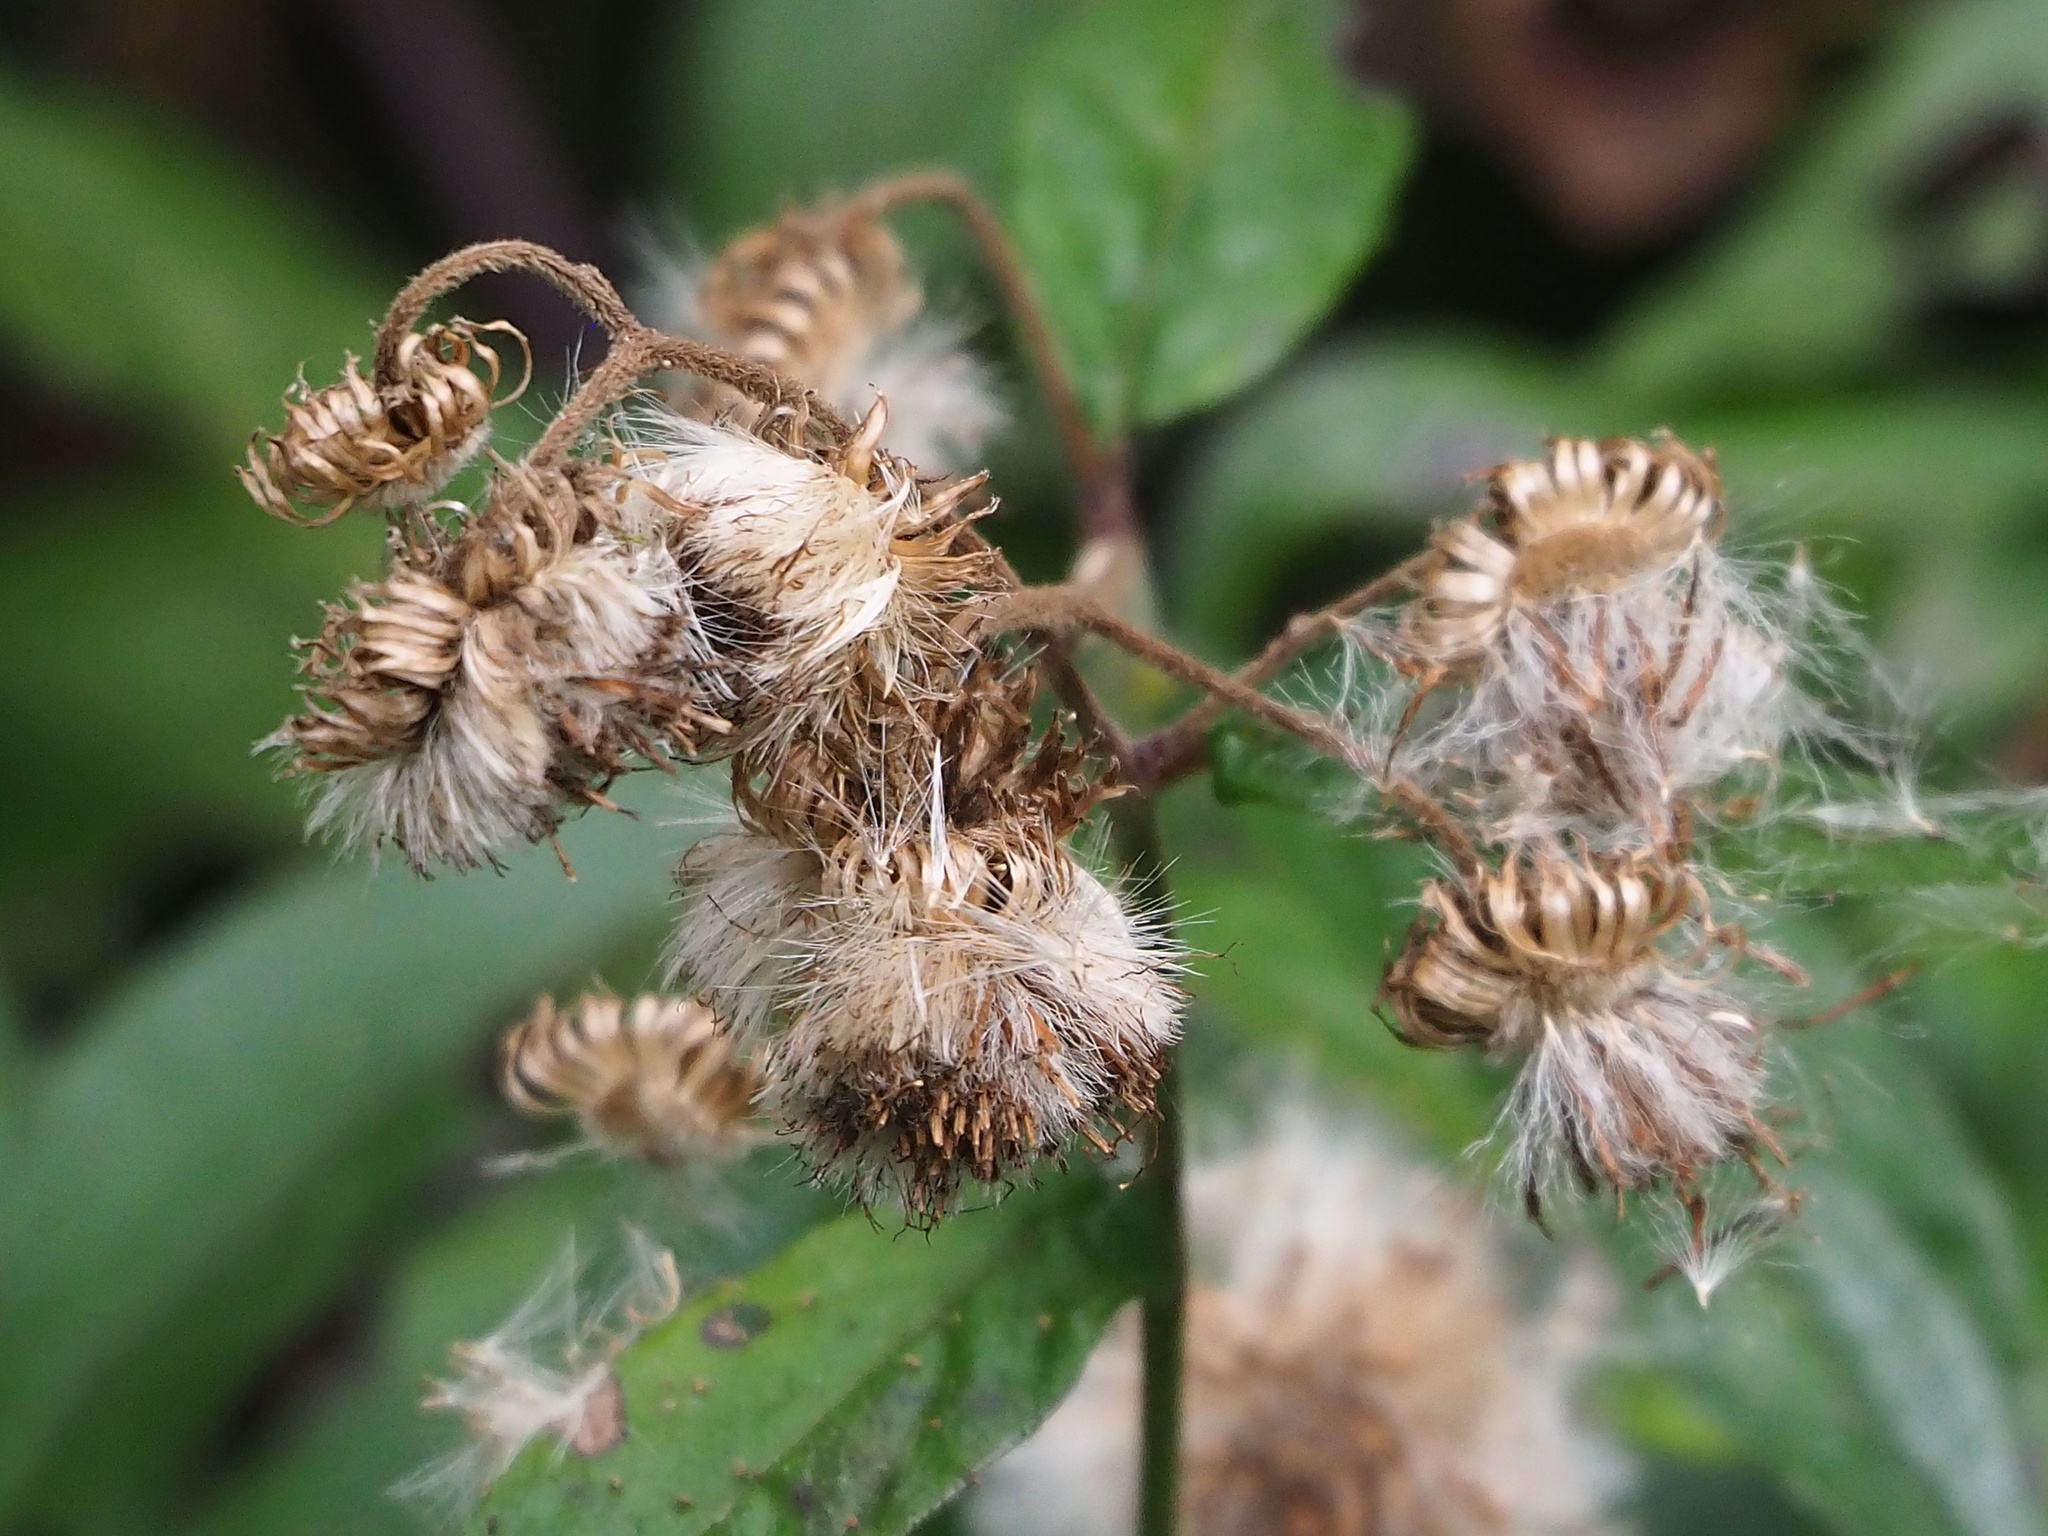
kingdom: Plantae
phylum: Tracheophyta
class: Magnoliopsida
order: Asterales
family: Asteraceae
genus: Blumea
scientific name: Blumea megacephala
